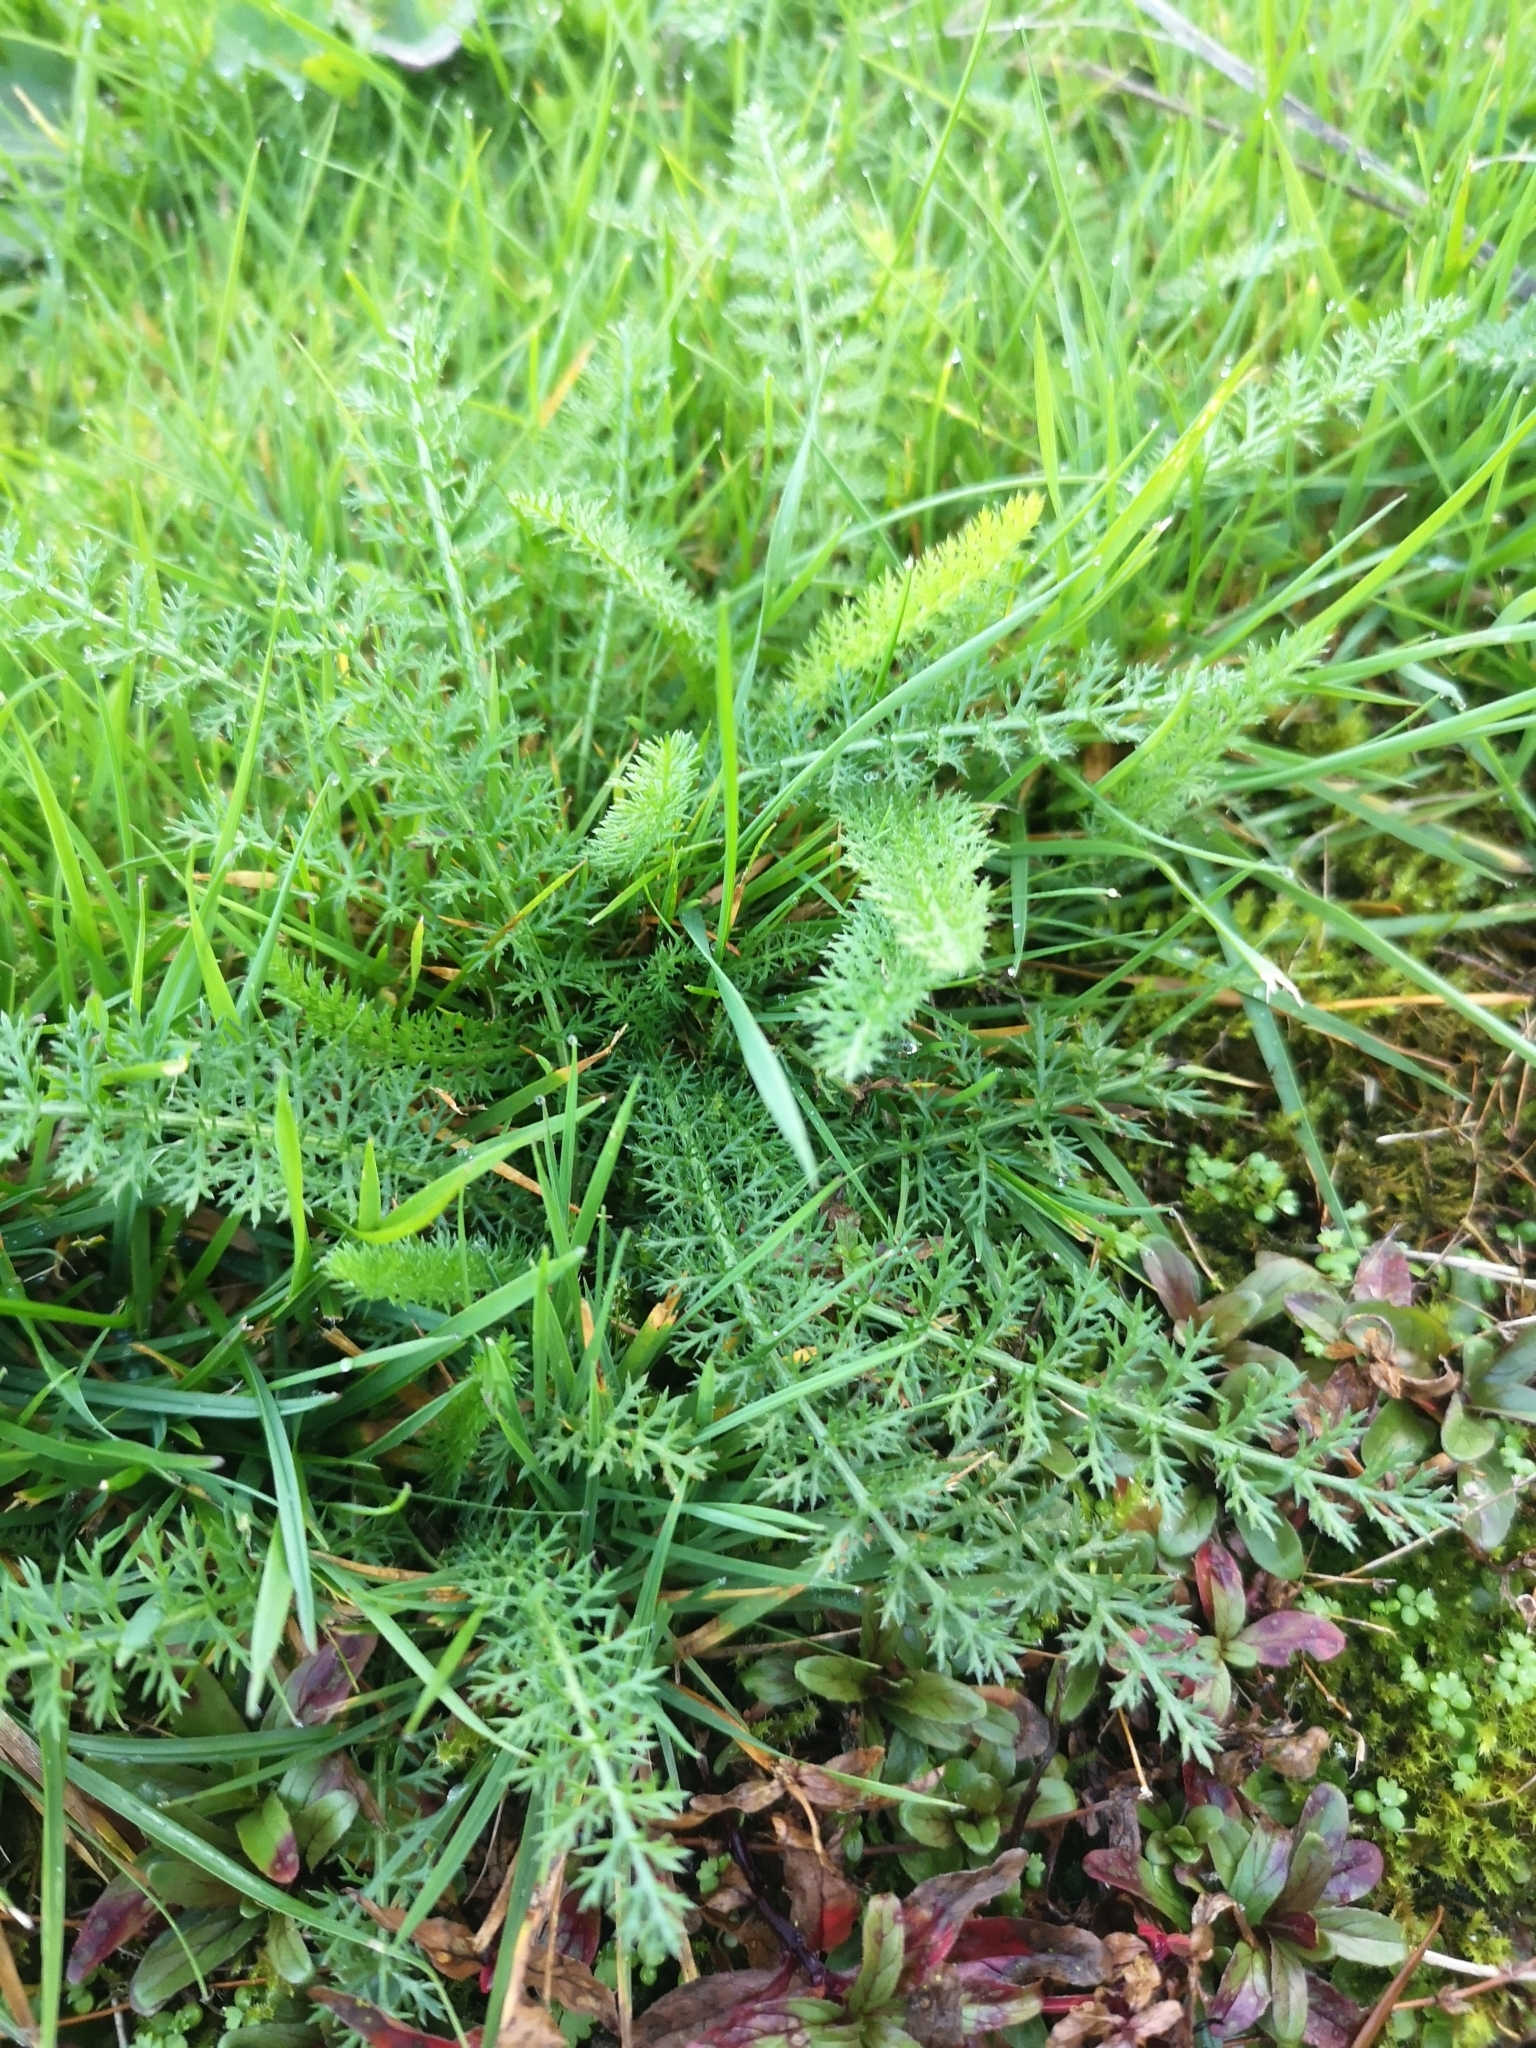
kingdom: Plantae
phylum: Tracheophyta
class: Magnoliopsida
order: Asterales
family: Asteraceae
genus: Achillea
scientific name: Achillea millefolium
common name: Yarrow
